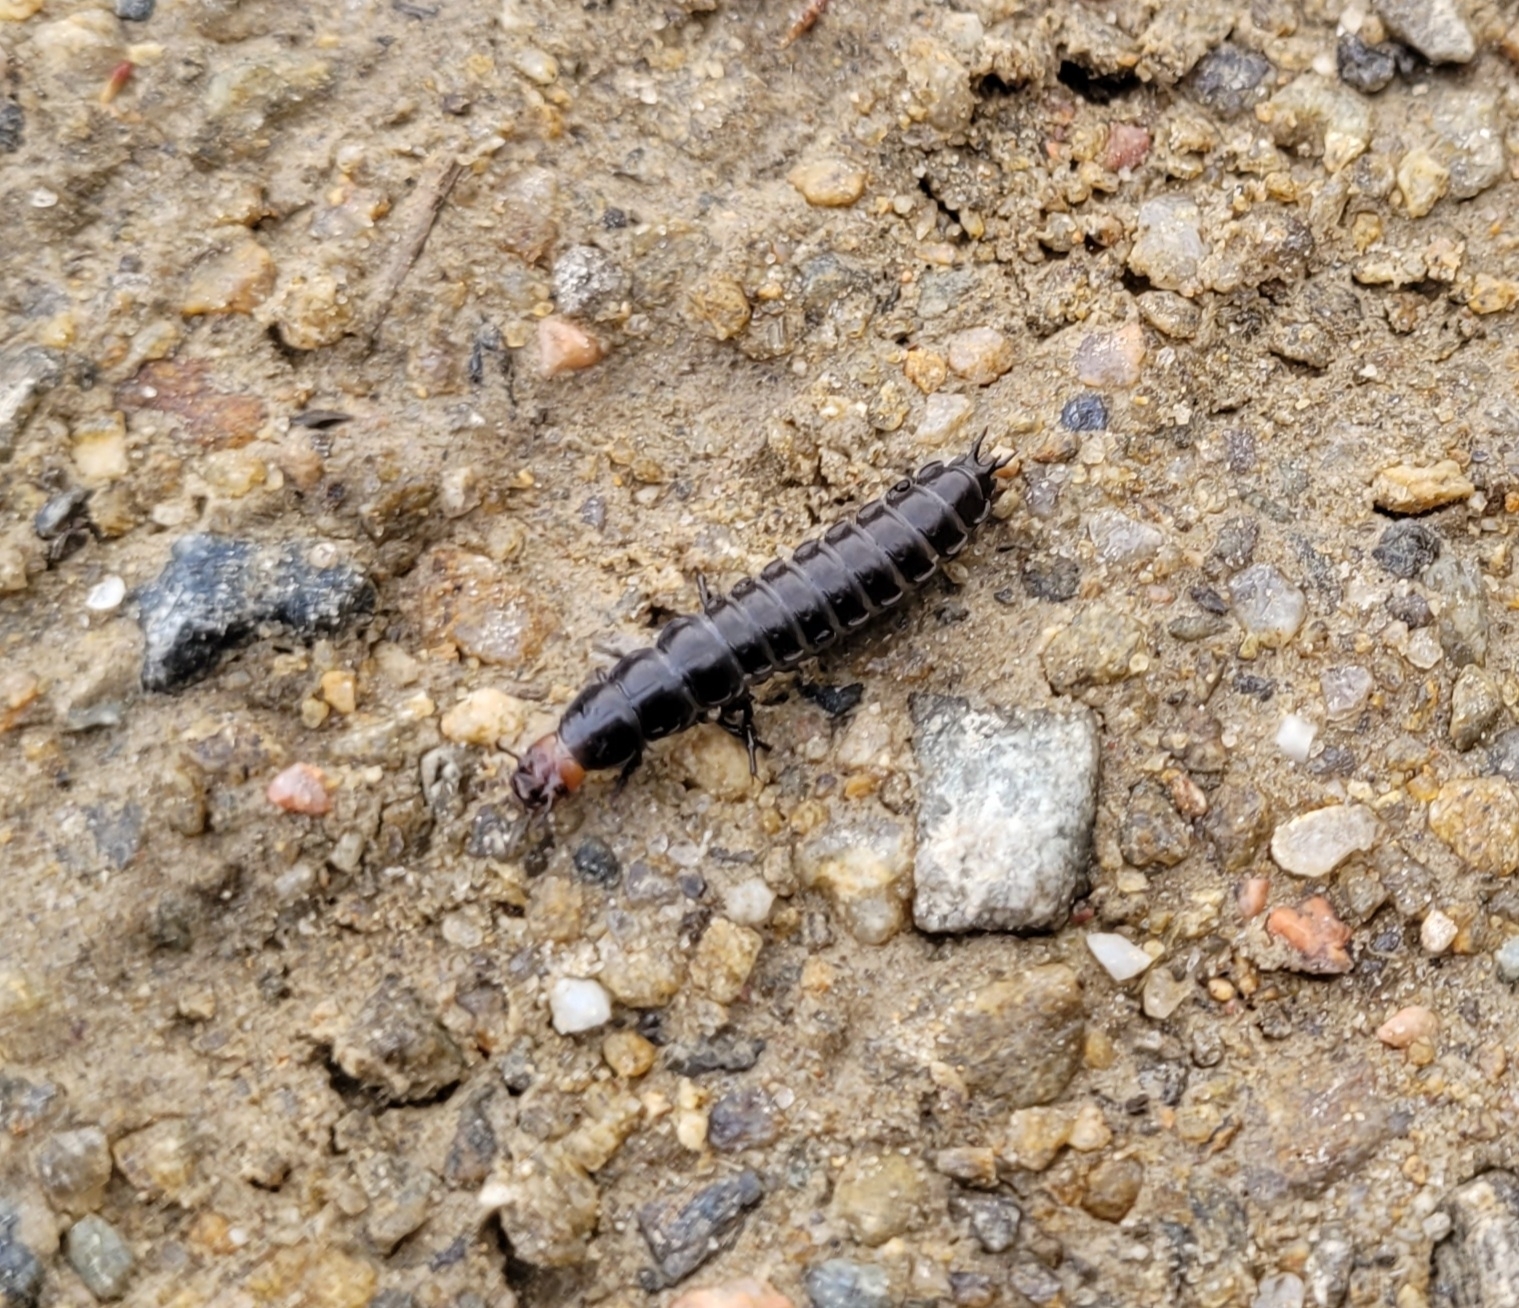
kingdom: Animalia
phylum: Arthropoda
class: Insecta
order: Coleoptera
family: Carabidae
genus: Carabus
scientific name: Carabus violaceus
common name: Violet ground beetle
